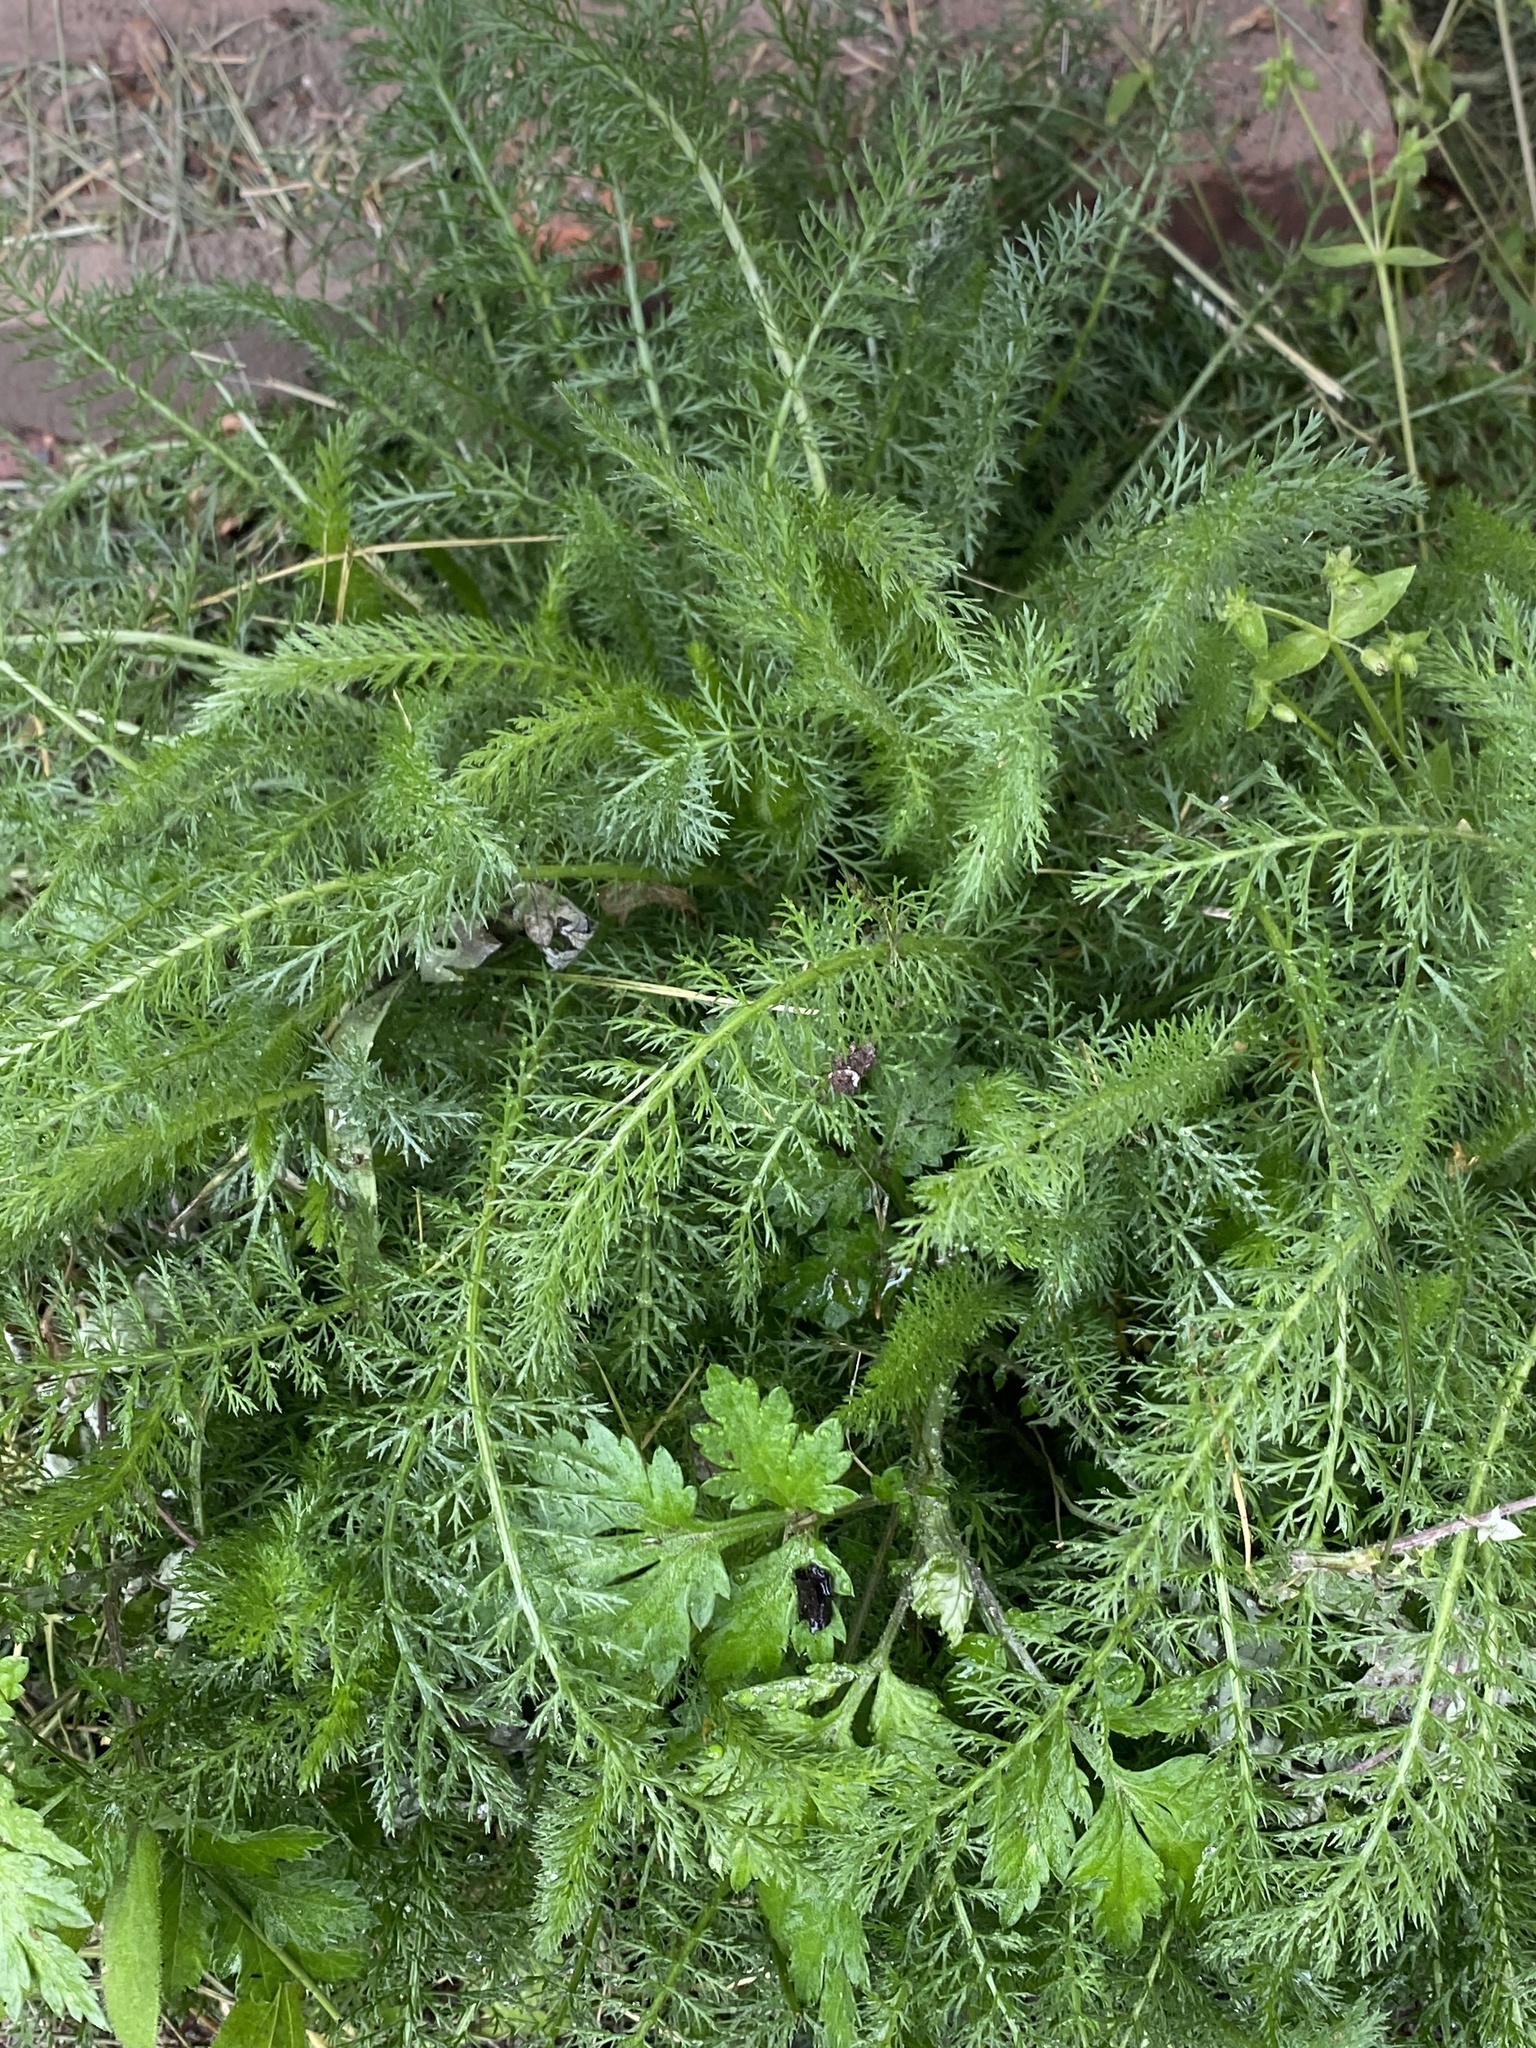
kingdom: Plantae
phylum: Tracheophyta
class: Magnoliopsida
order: Asterales
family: Asteraceae
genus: Achillea
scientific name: Achillea millefolium
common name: Yarrow
